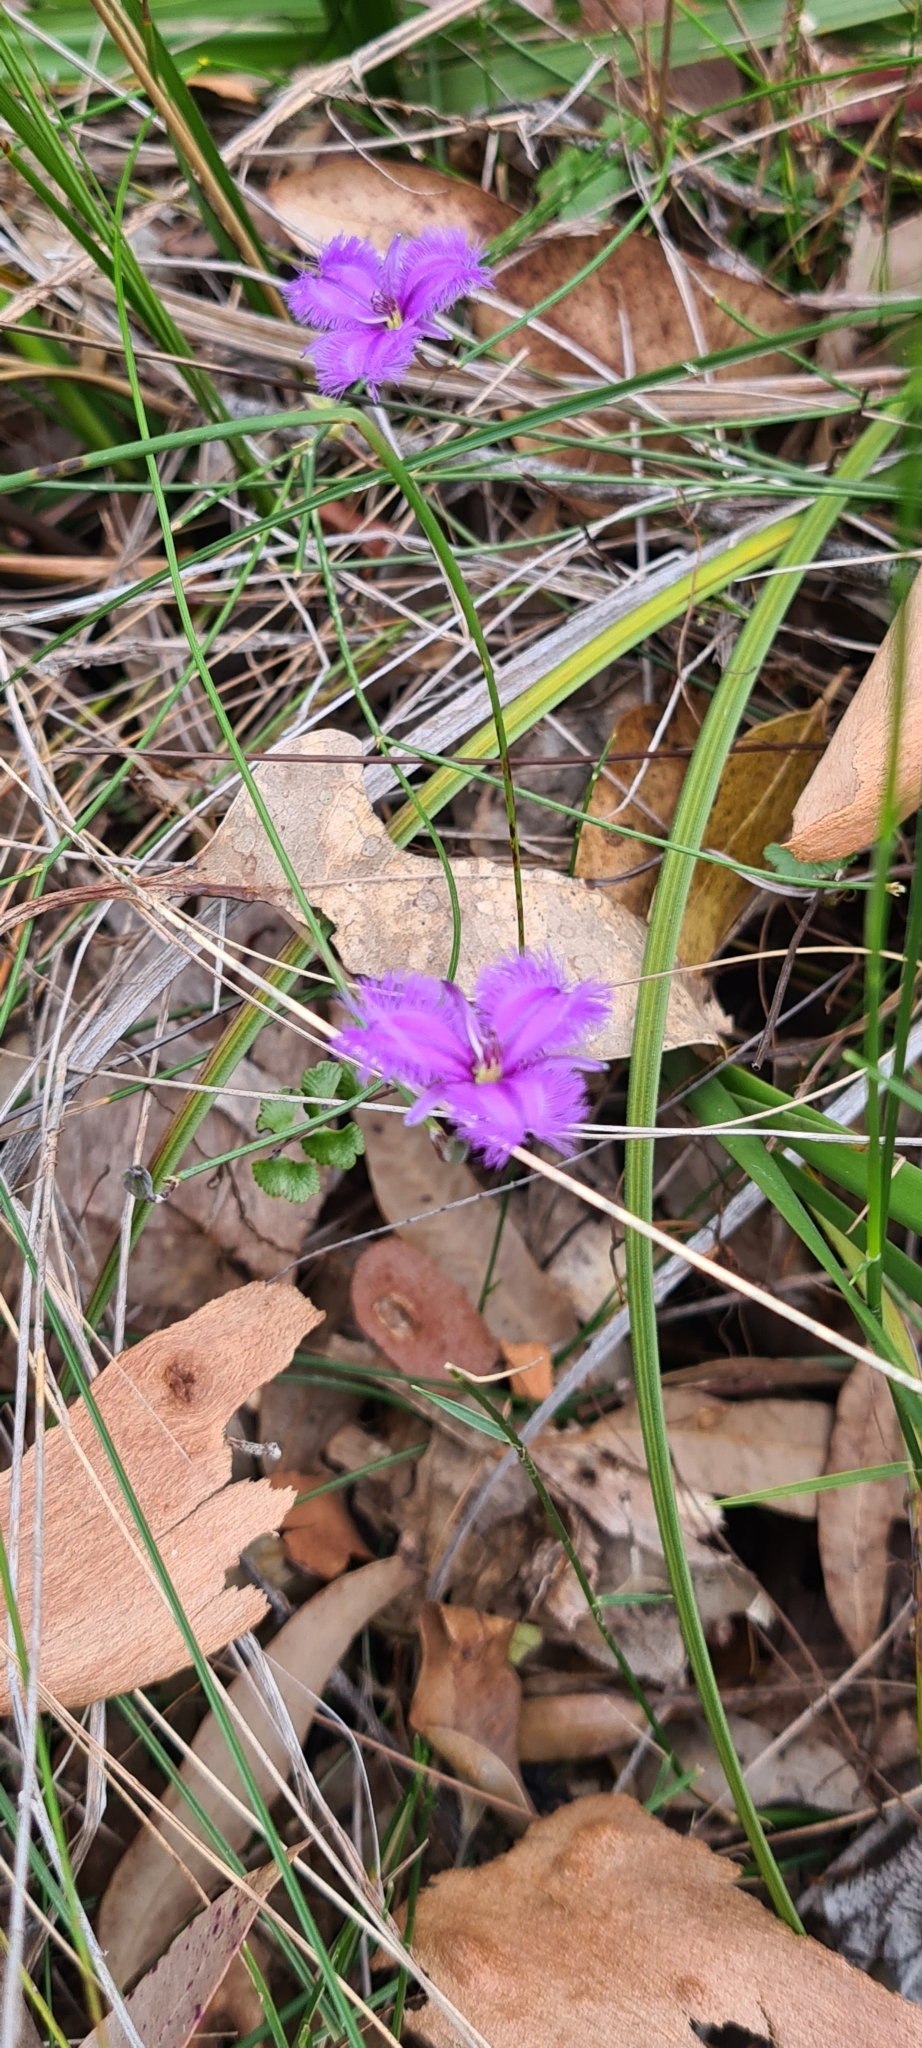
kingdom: Plantae
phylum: Tracheophyta
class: Liliopsida
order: Asparagales
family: Asparagaceae
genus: Thysanotus
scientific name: Thysanotus juncifolius
